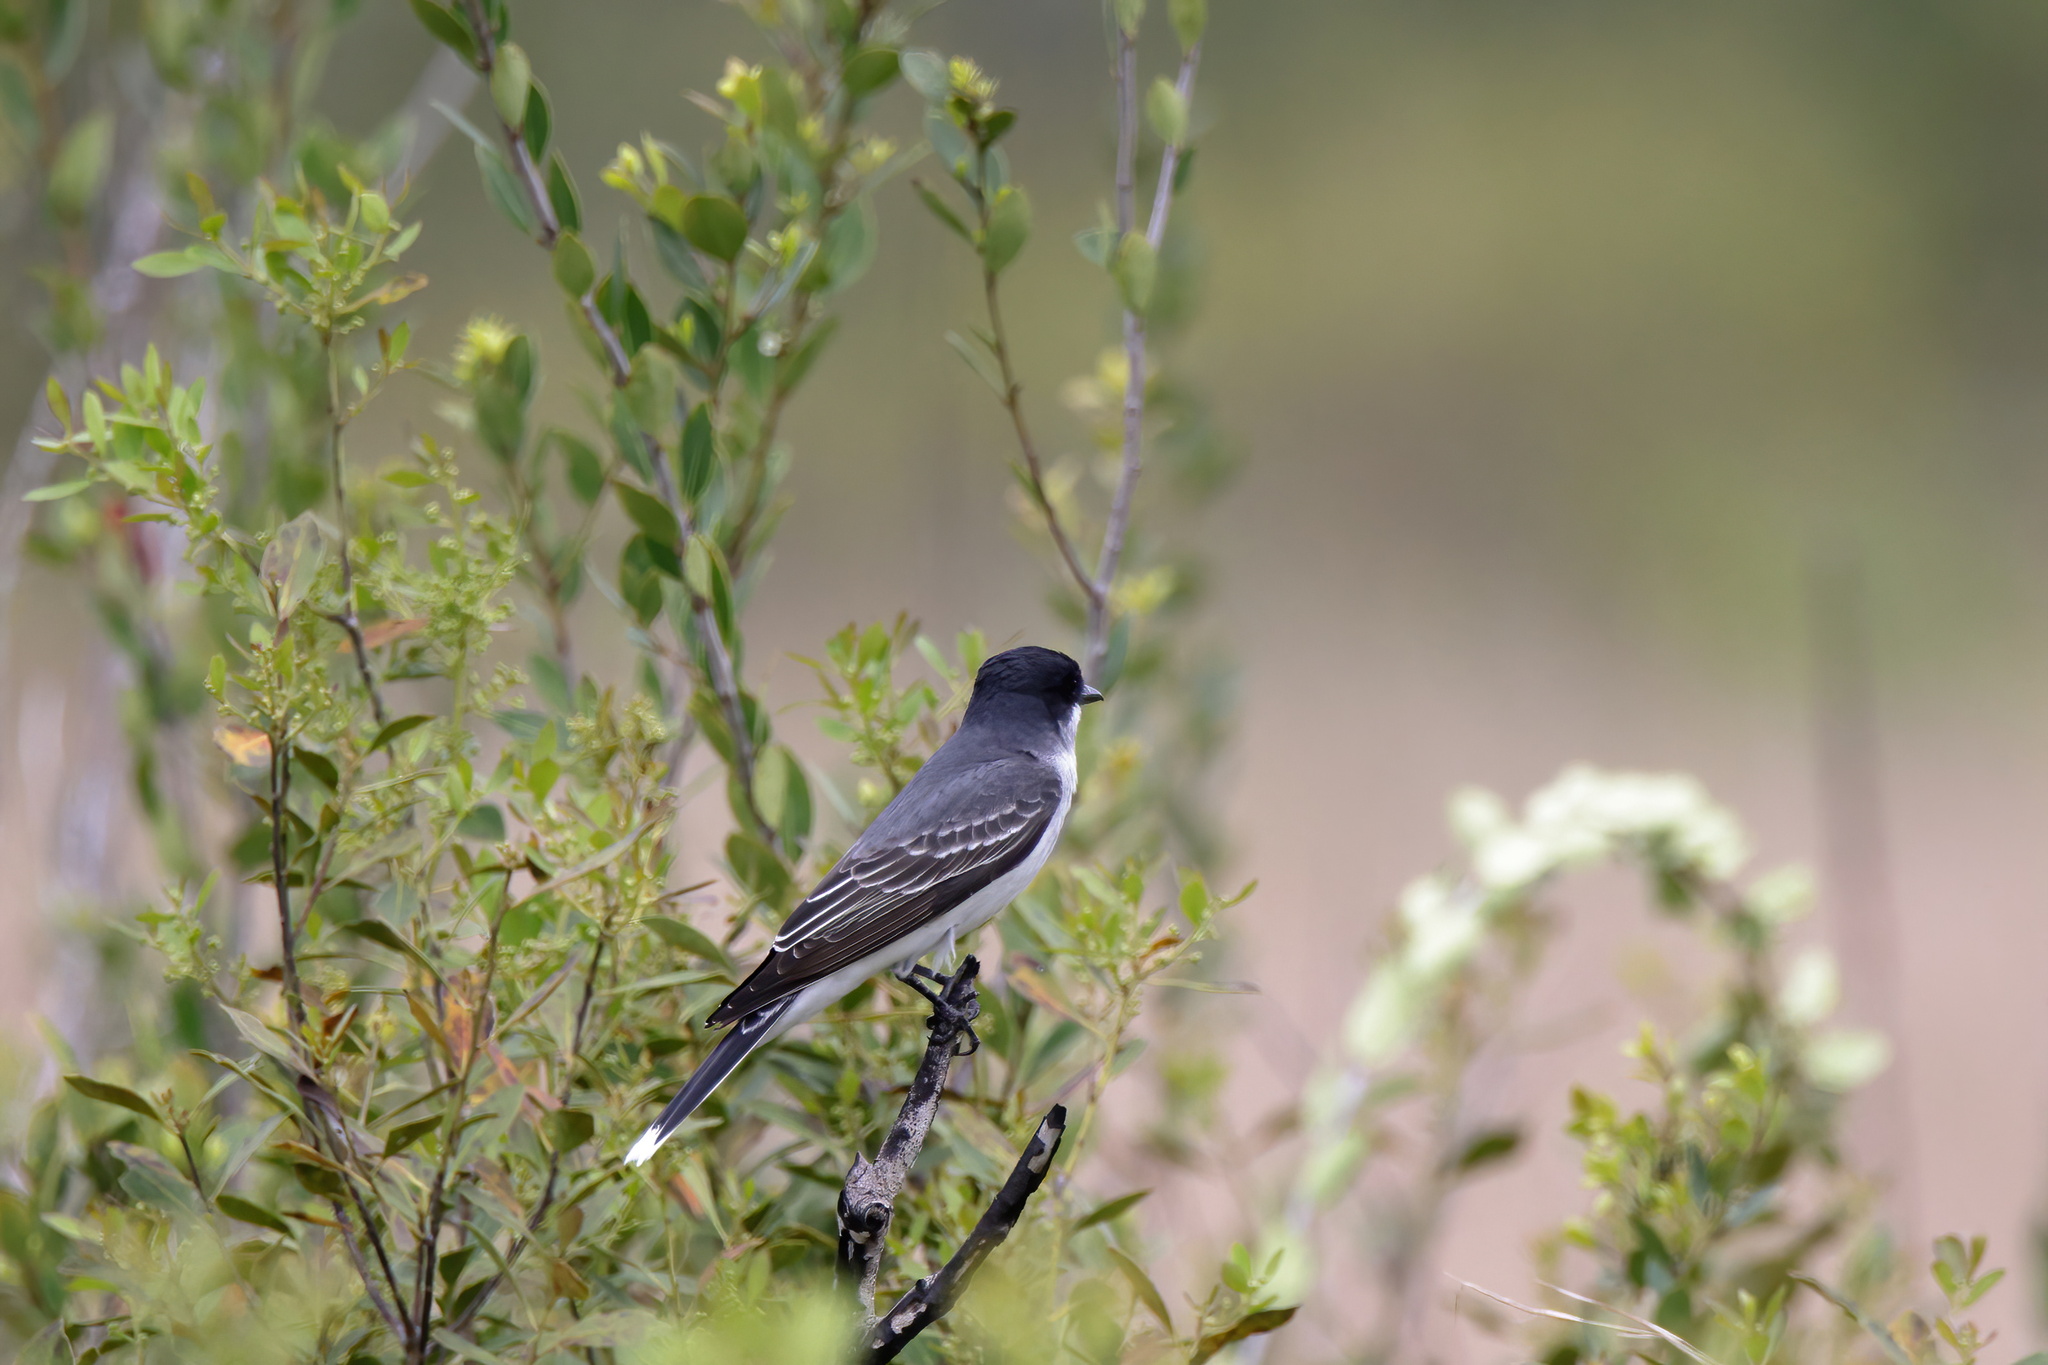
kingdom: Animalia
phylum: Chordata
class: Aves
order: Passeriformes
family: Tyrannidae
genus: Tyrannus
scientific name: Tyrannus tyrannus
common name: Eastern kingbird
